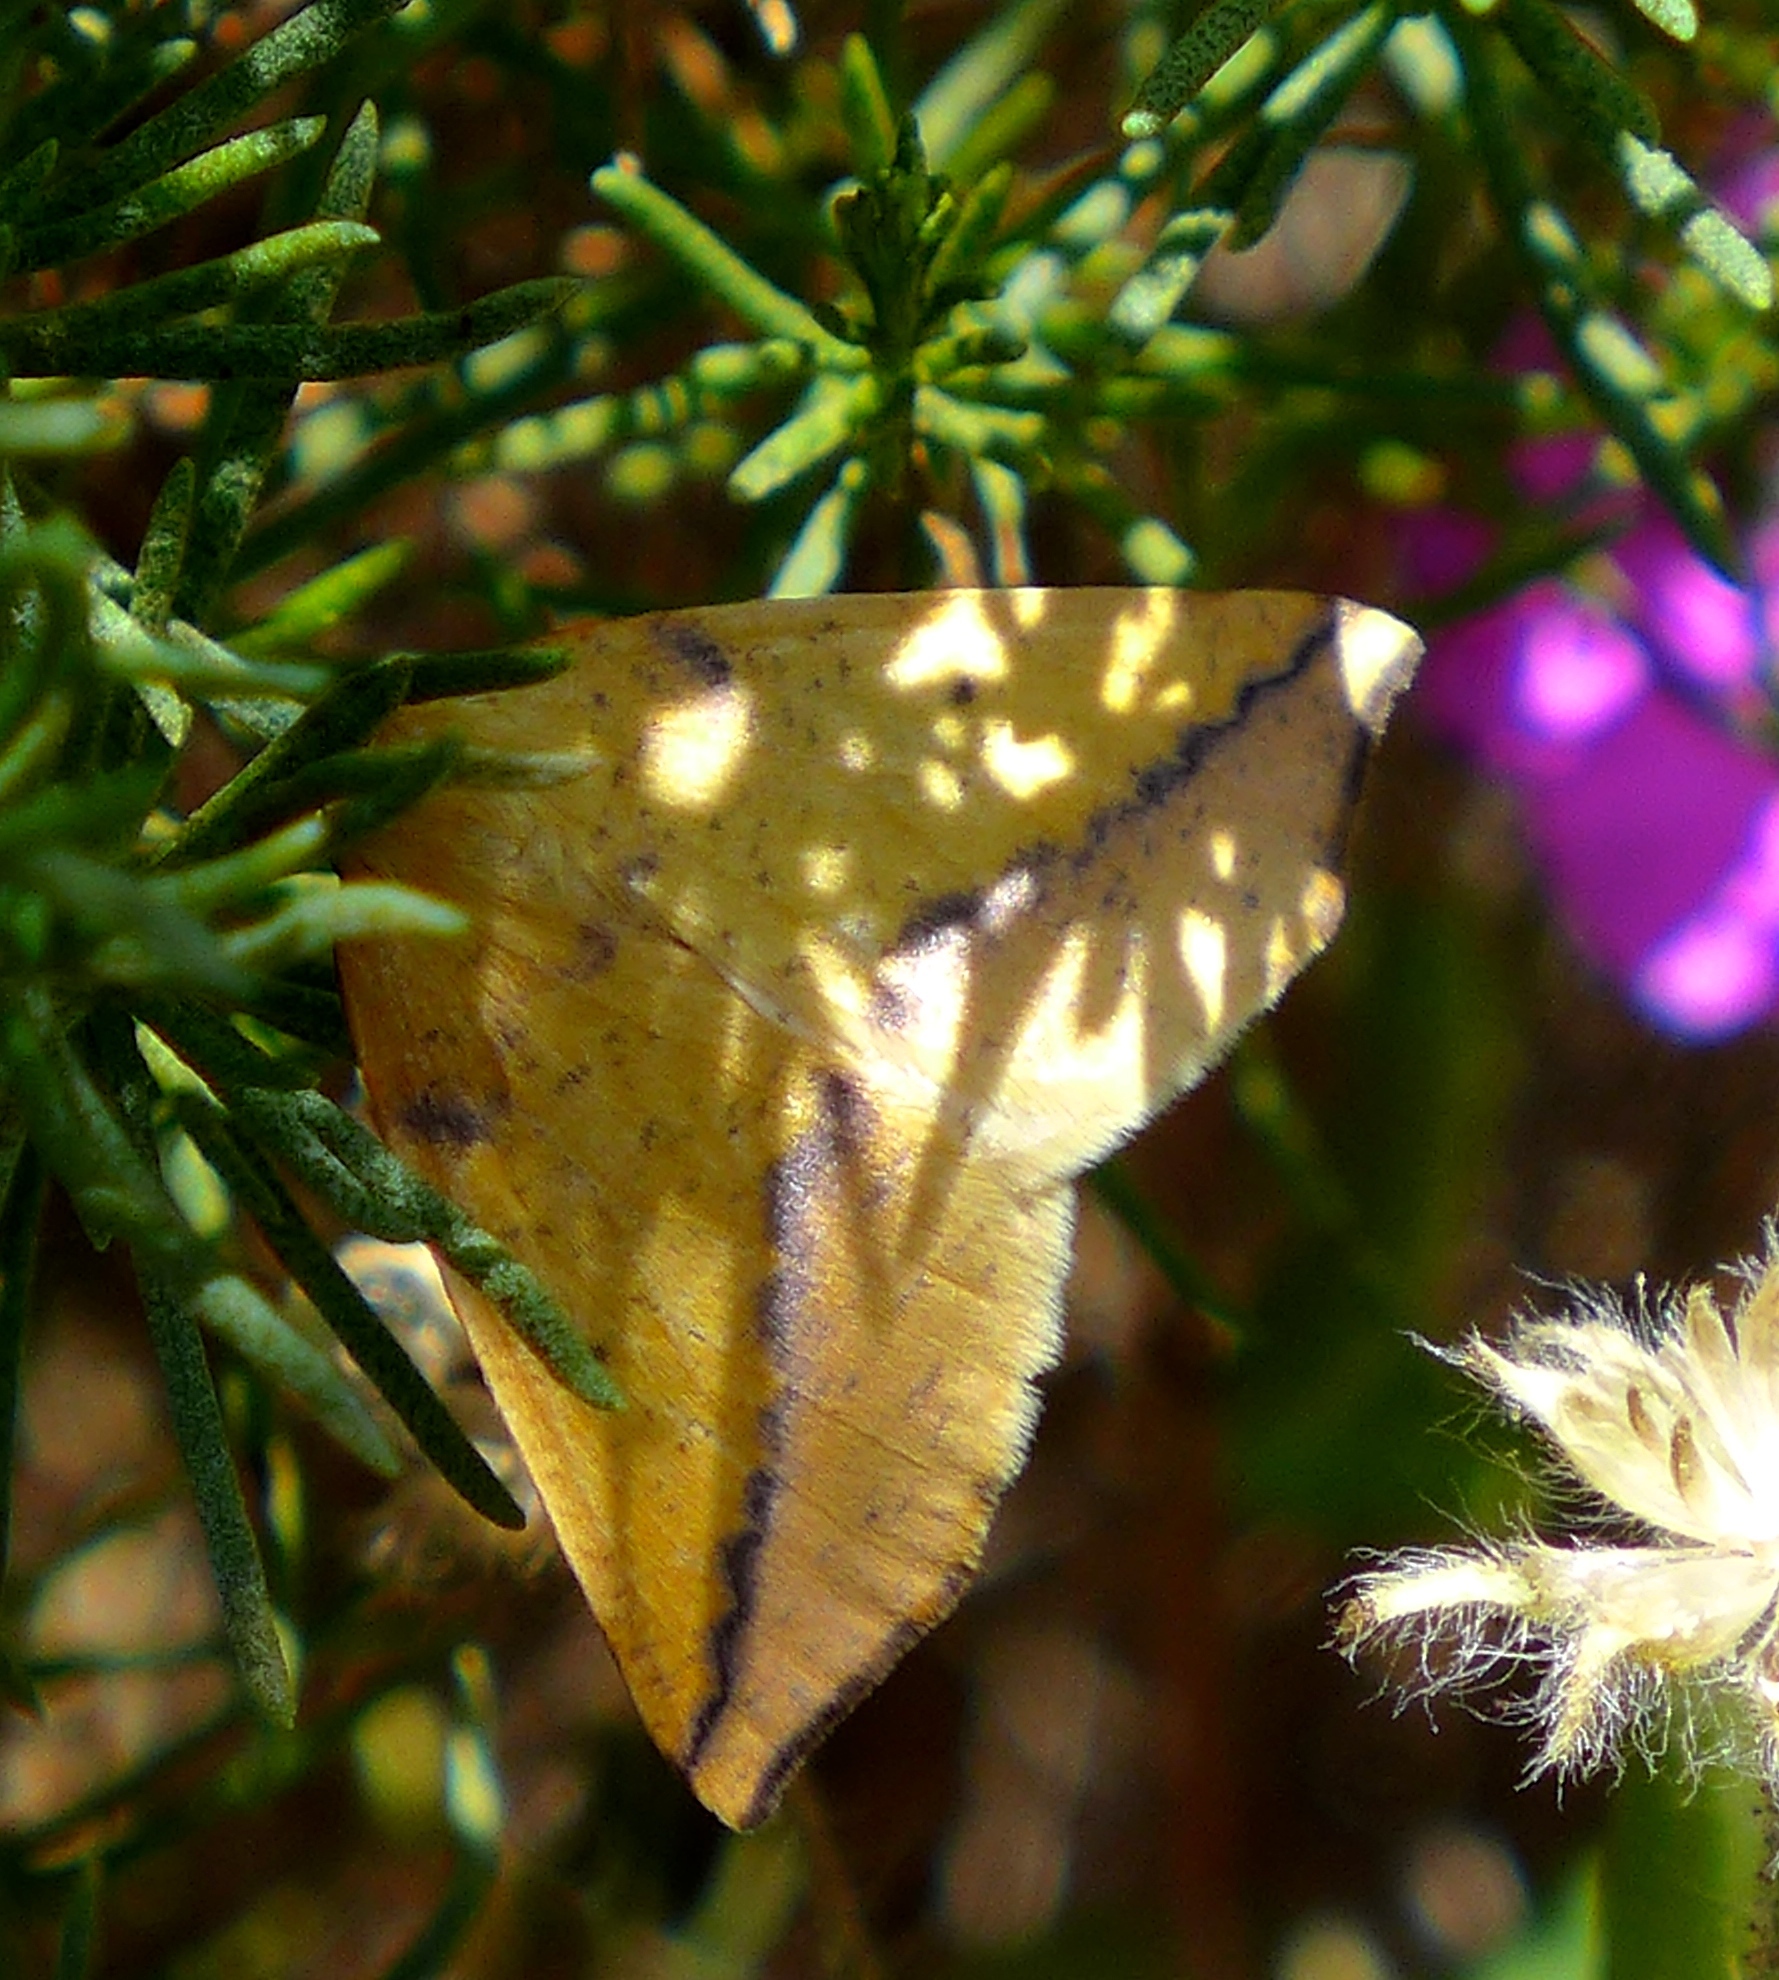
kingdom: Animalia
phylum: Arthropoda
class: Insecta
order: Lepidoptera
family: Geometridae
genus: Neoterpes
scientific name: Neoterpes edwardsata
